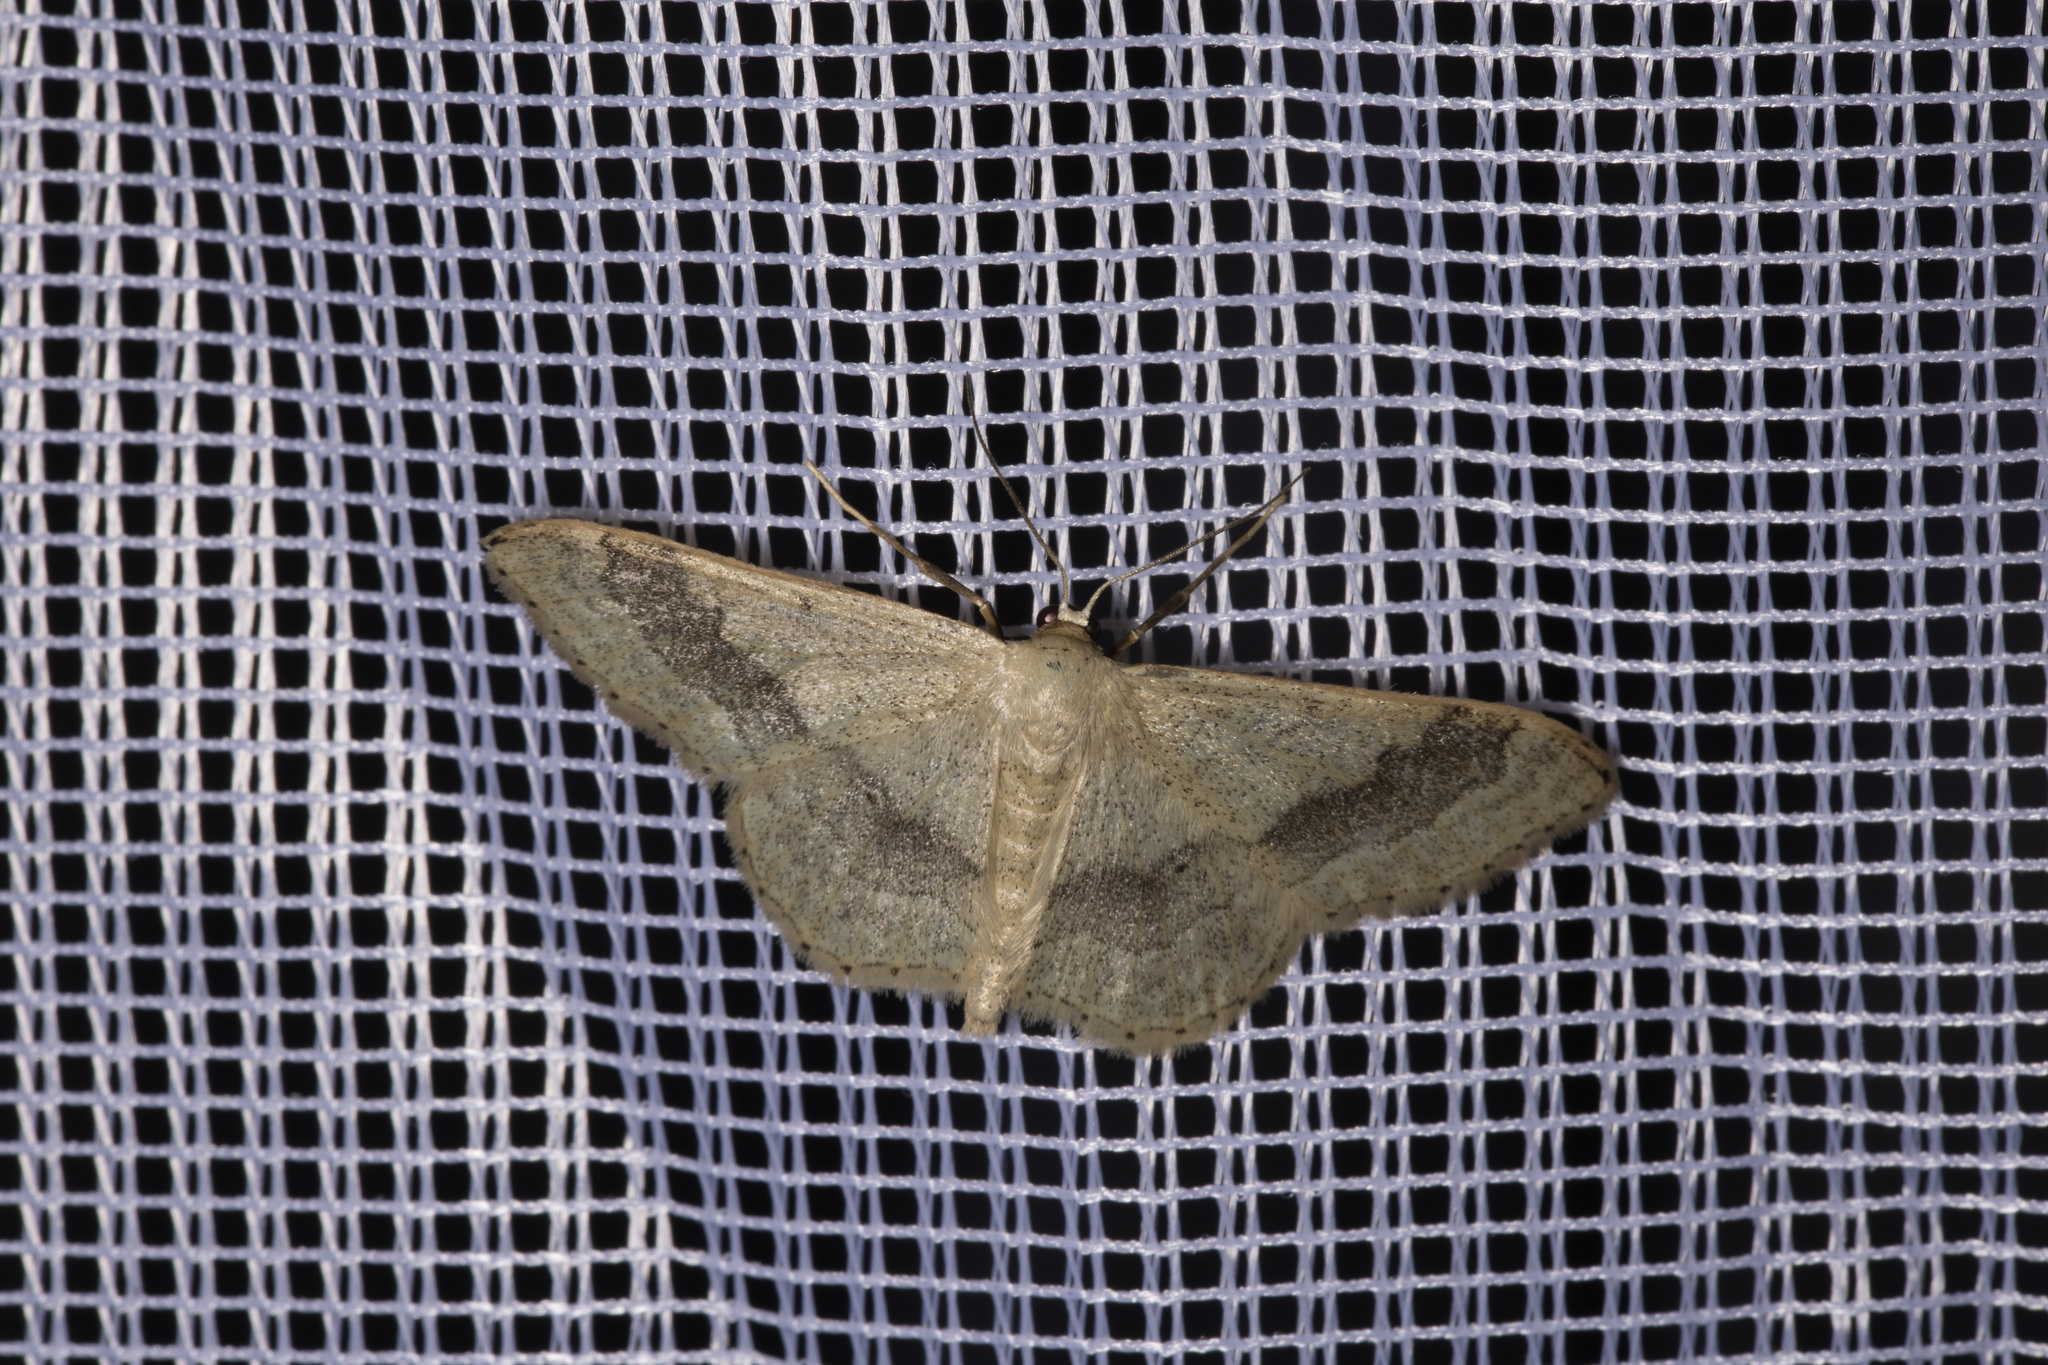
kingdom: Animalia
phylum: Arthropoda
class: Insecta
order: Lepidoptera
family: Geometridae
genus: Idaea
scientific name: Idaea aversata
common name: Riband wave
